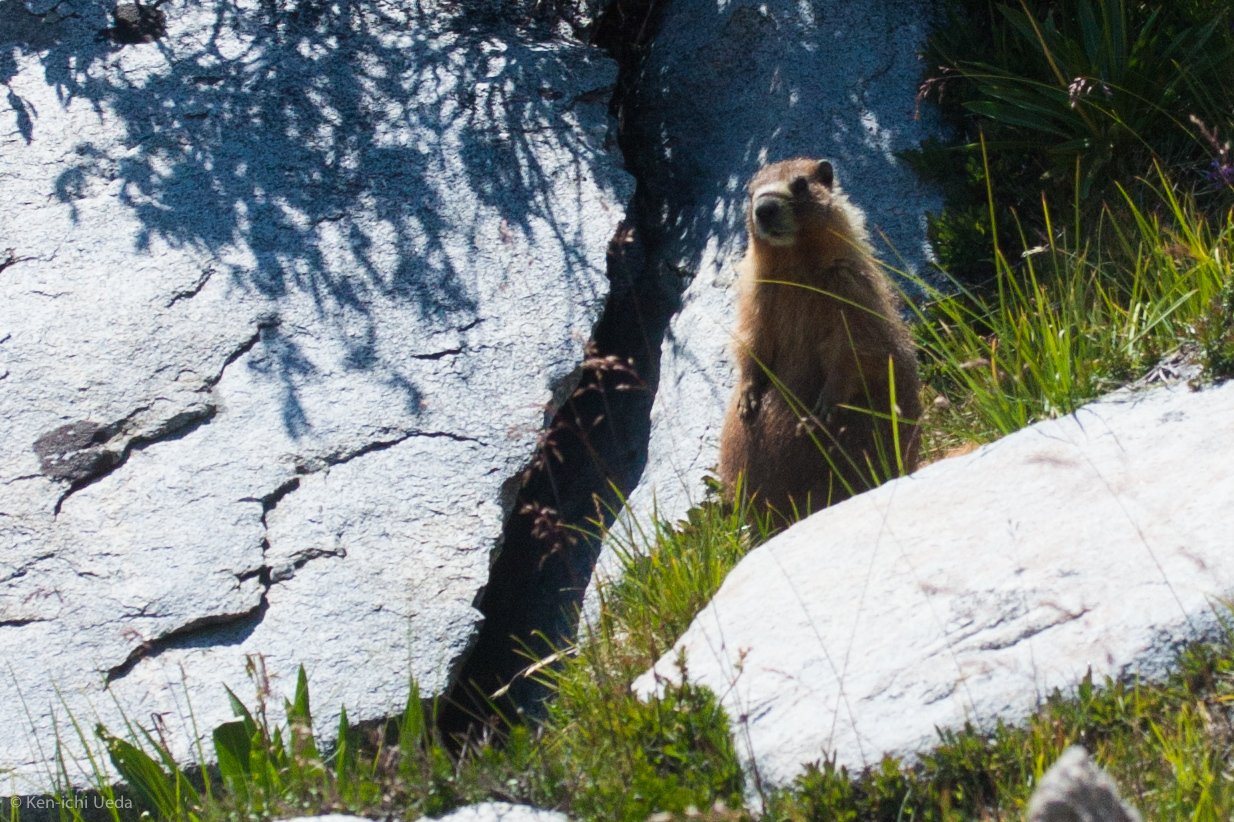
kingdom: Animalia
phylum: Chordata
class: Mammalia
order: Rodentia
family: Sciuridae
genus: Marmota
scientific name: Marmota flaviventris
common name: Yellow-bellied marmot
